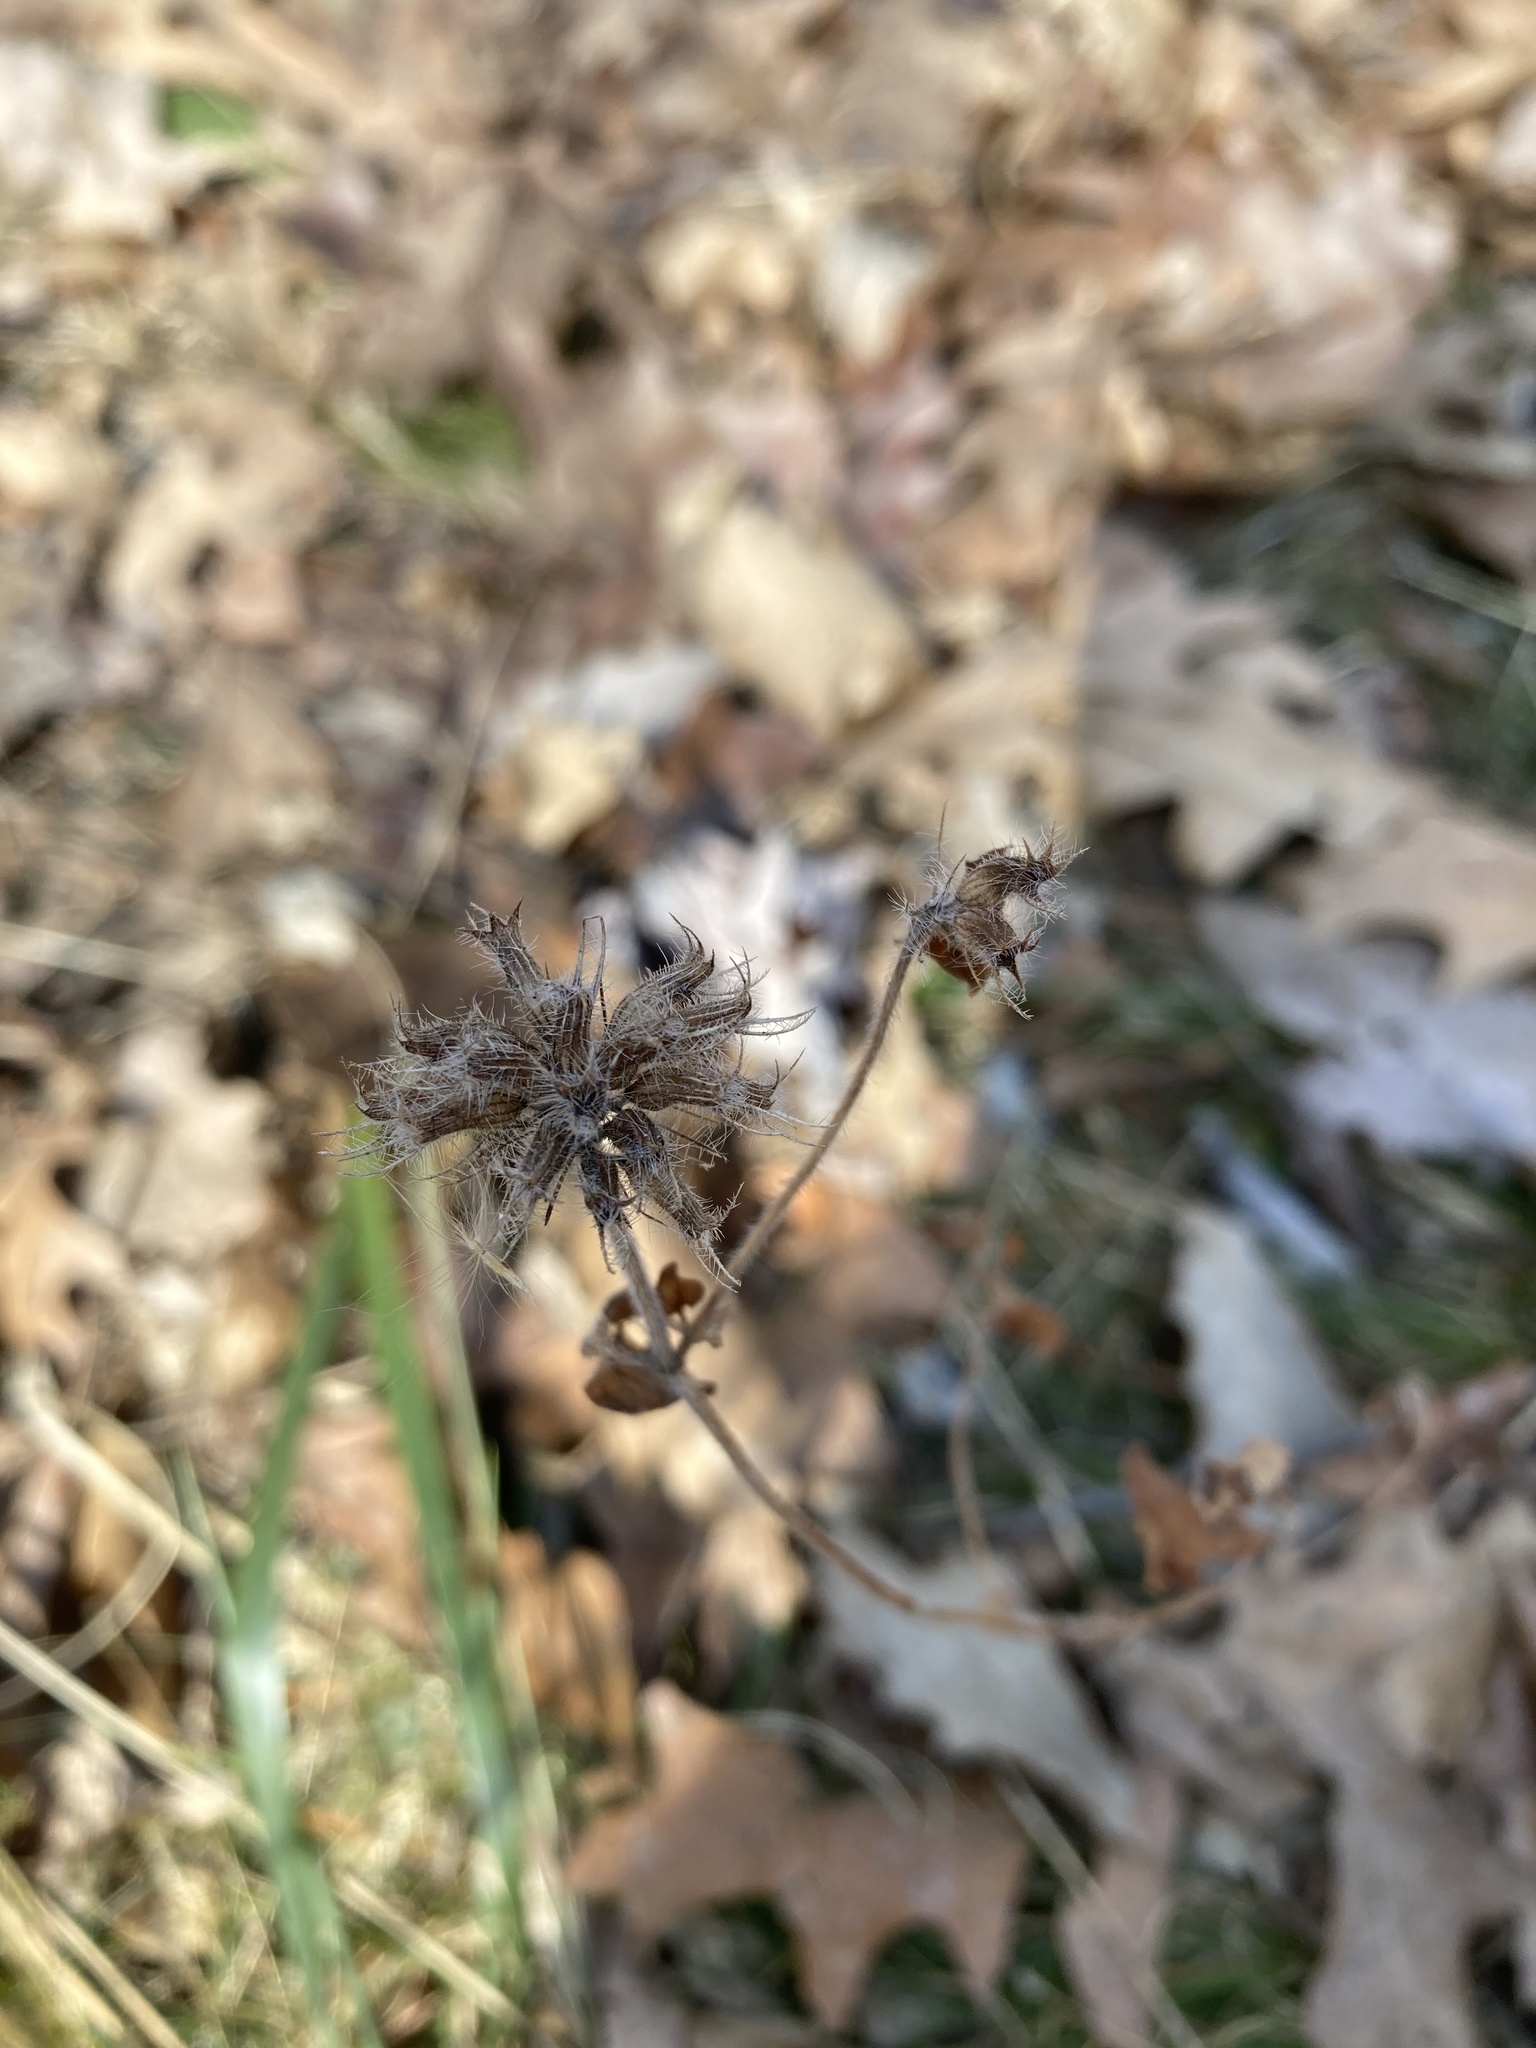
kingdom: Plantae
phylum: Tracheophyta
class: Magnoliopsida
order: Lamiales
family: Lamiaceae
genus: Clinopodium
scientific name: Clinopodium vulgare
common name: Wild basil
